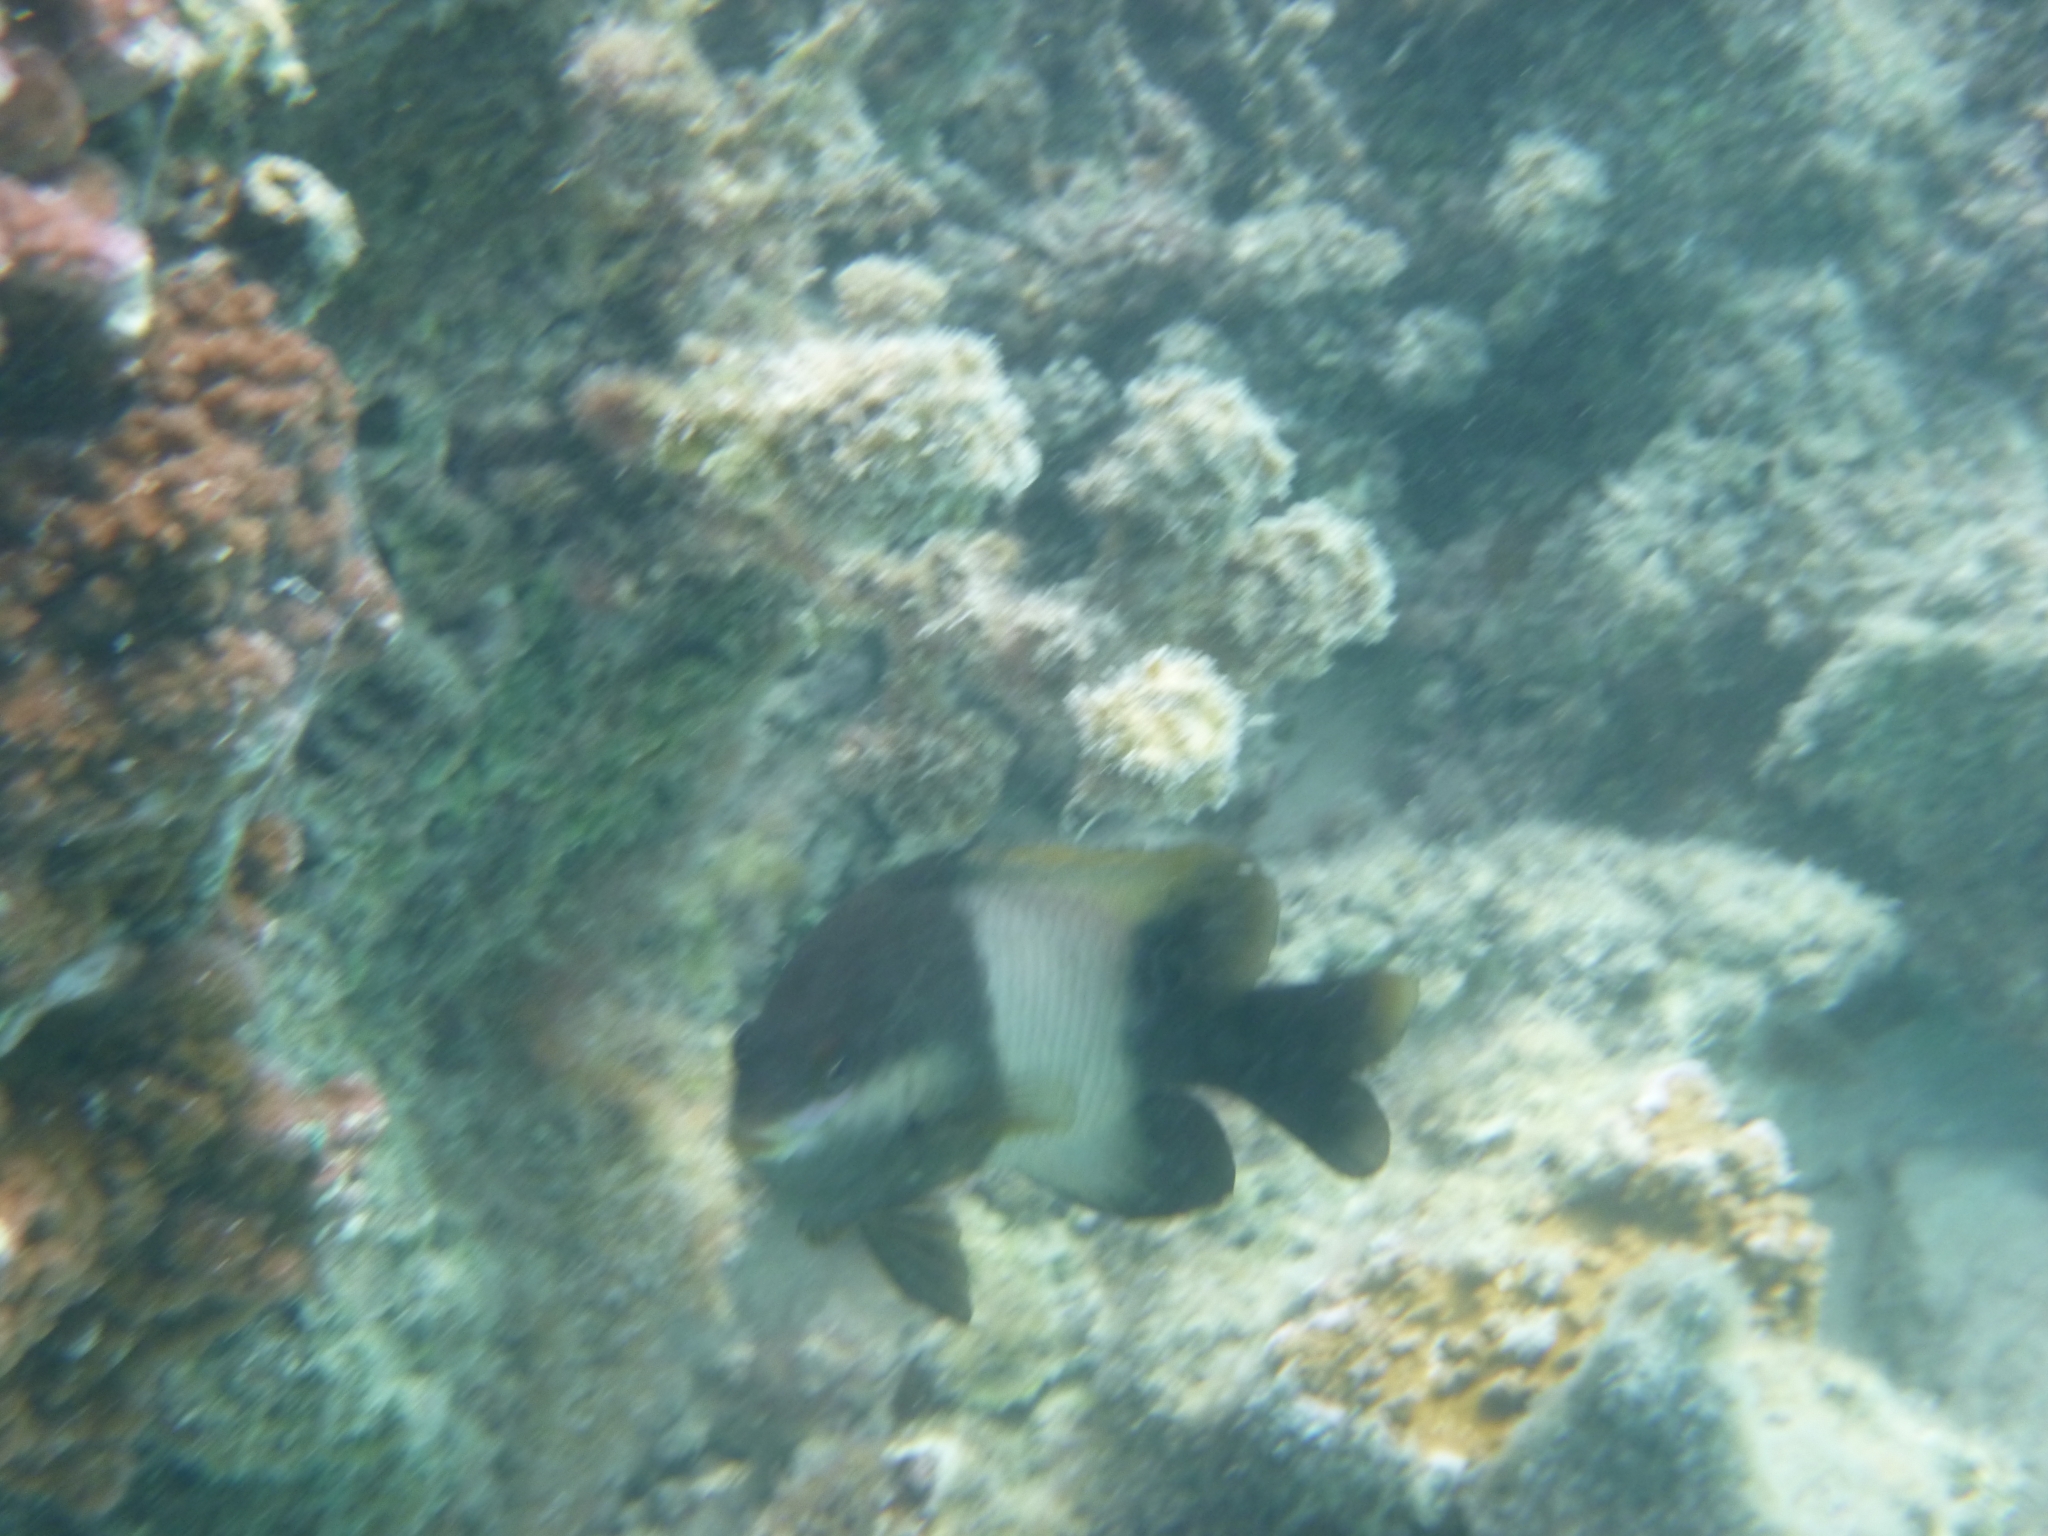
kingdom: Animalia
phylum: Chordata
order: Perciformes
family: Pomacentridae
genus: Stegastes
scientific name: Stegastes nigricans
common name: Dusky gregory
